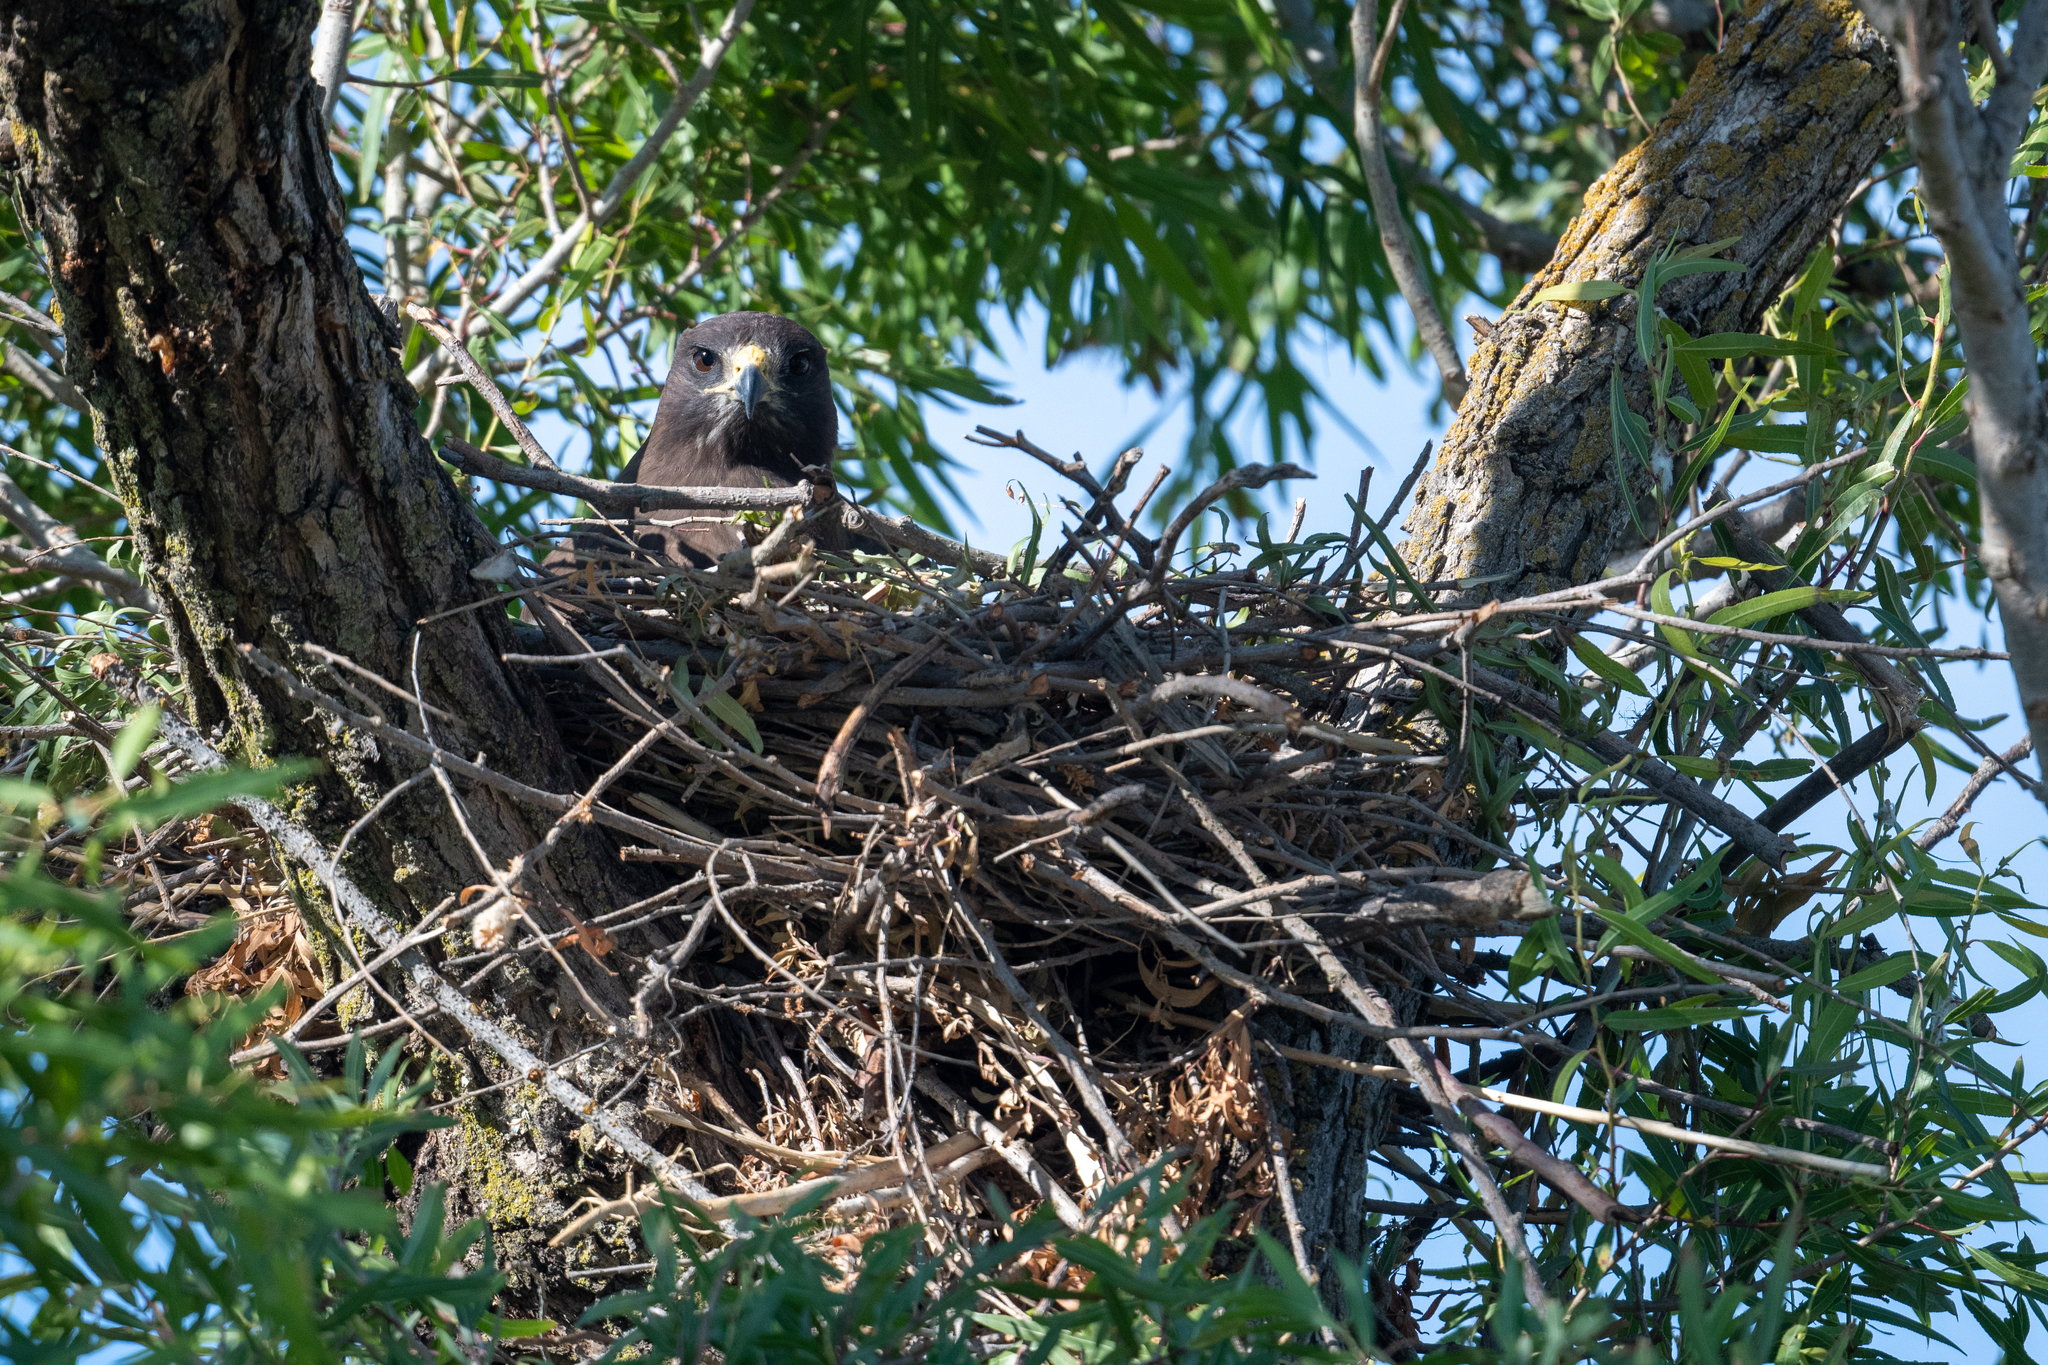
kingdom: Animalia
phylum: Chordata
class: Aves
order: Accipitriformes
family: Accipitridae
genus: Buteo
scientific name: Buteo swainsoni
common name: Swainson's hawk
